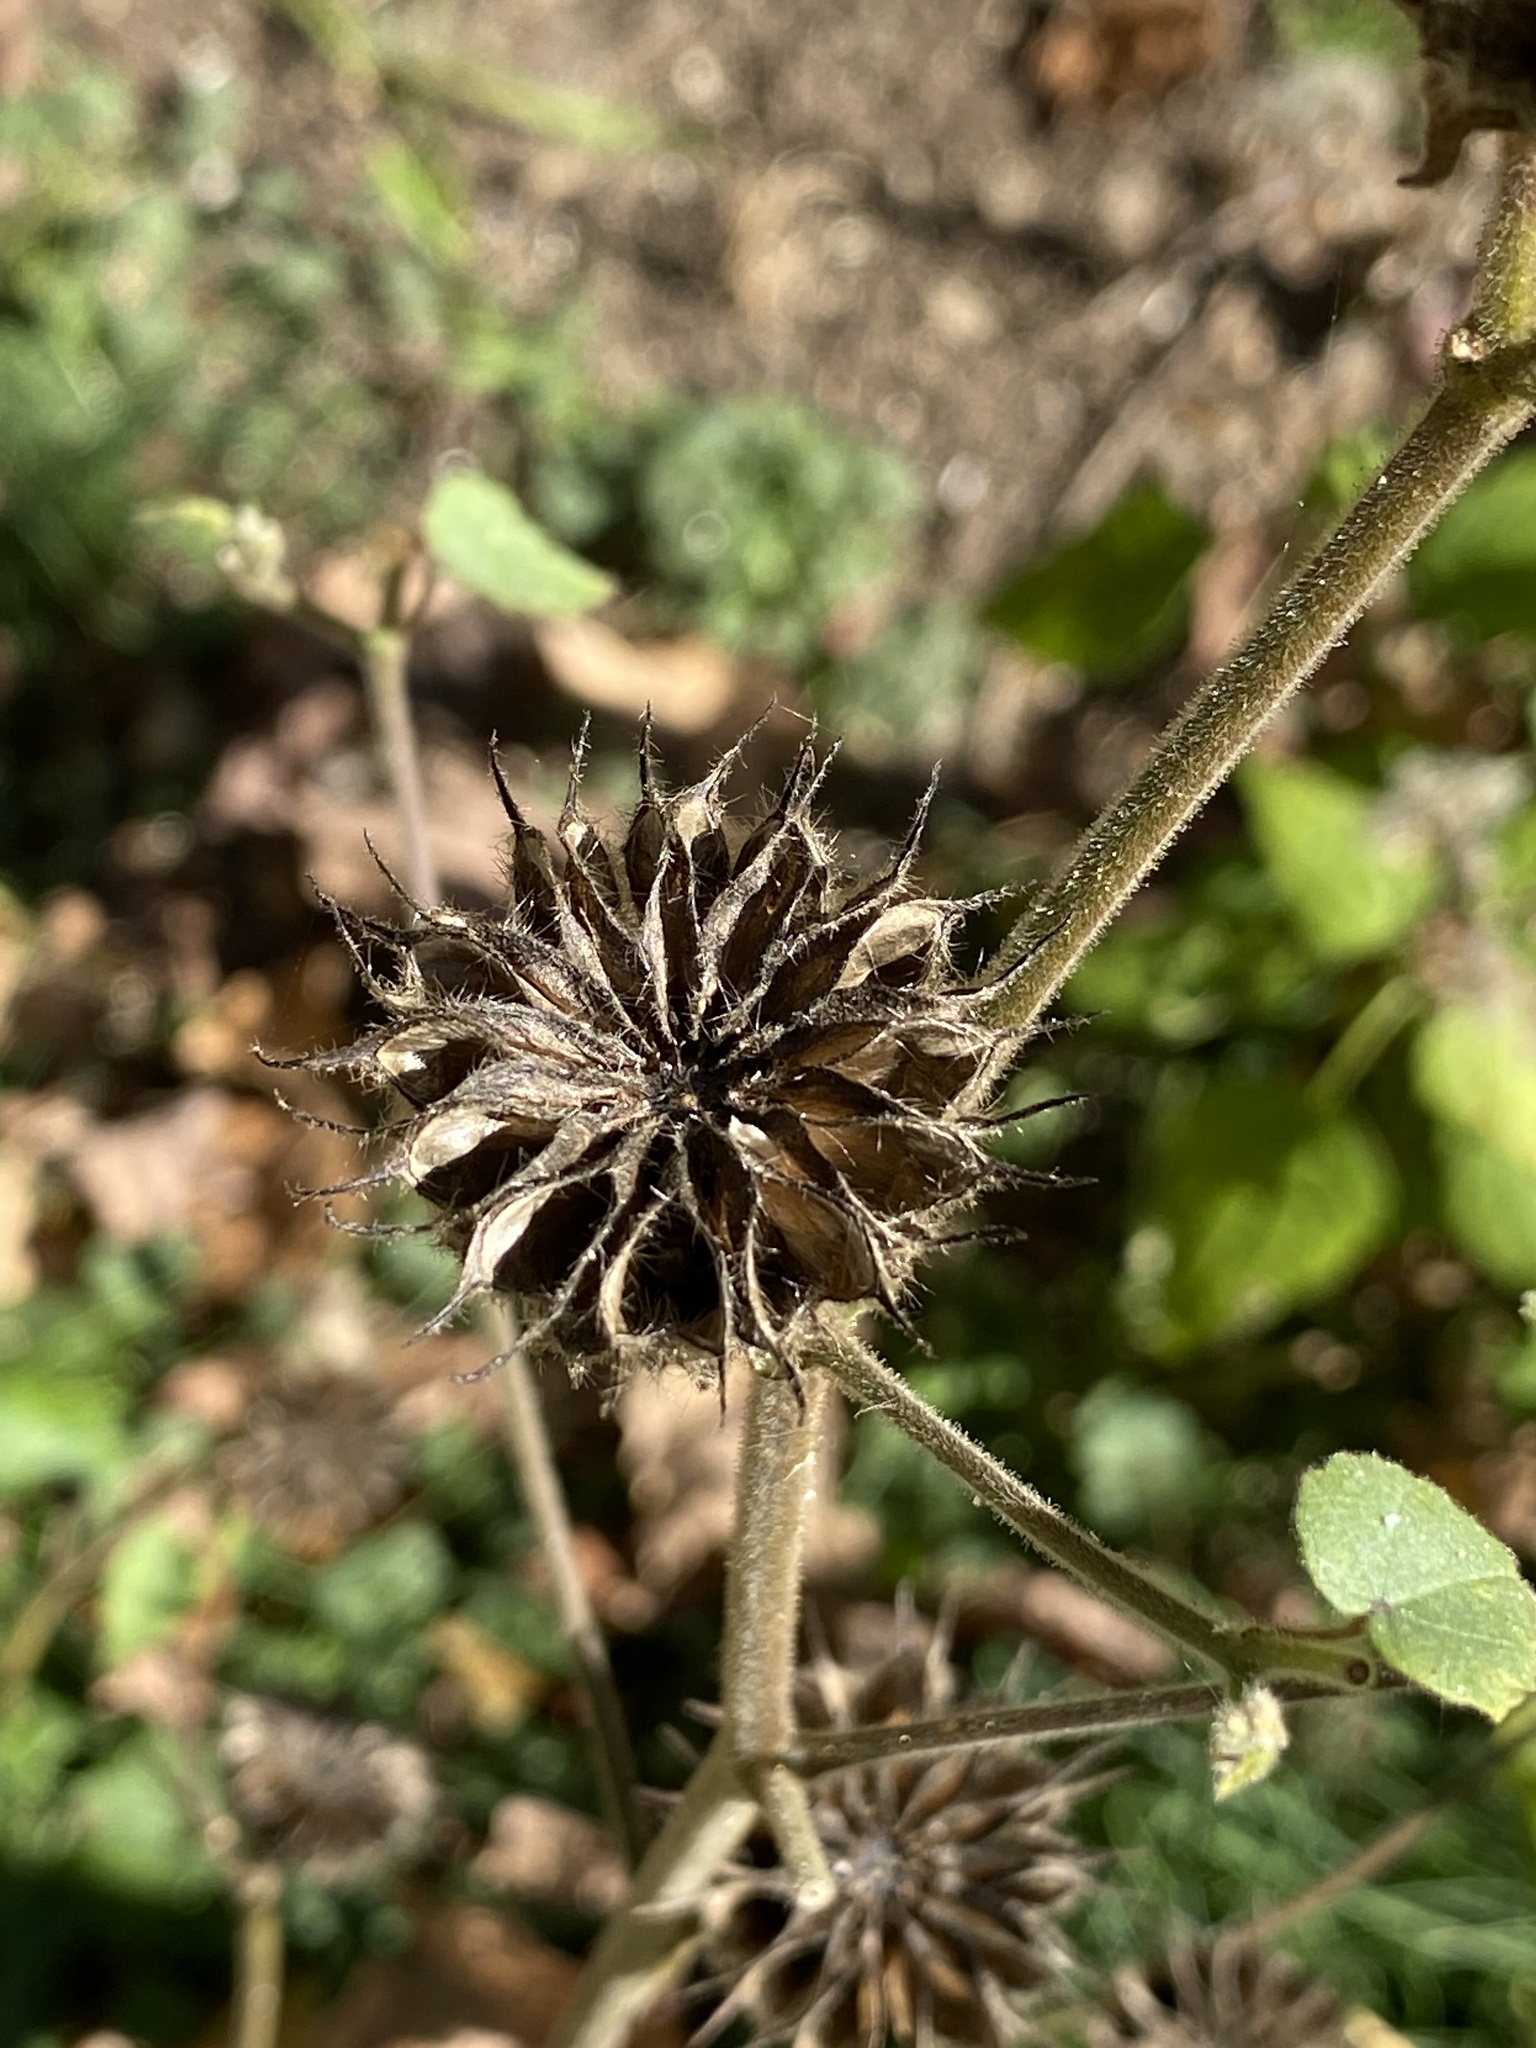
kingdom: Plantae
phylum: Tracheophyta
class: Magnoliopsida
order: Malvales
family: Malvaceae
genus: Abutilon
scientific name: Abutilon theophrasti
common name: Velvetleaf
